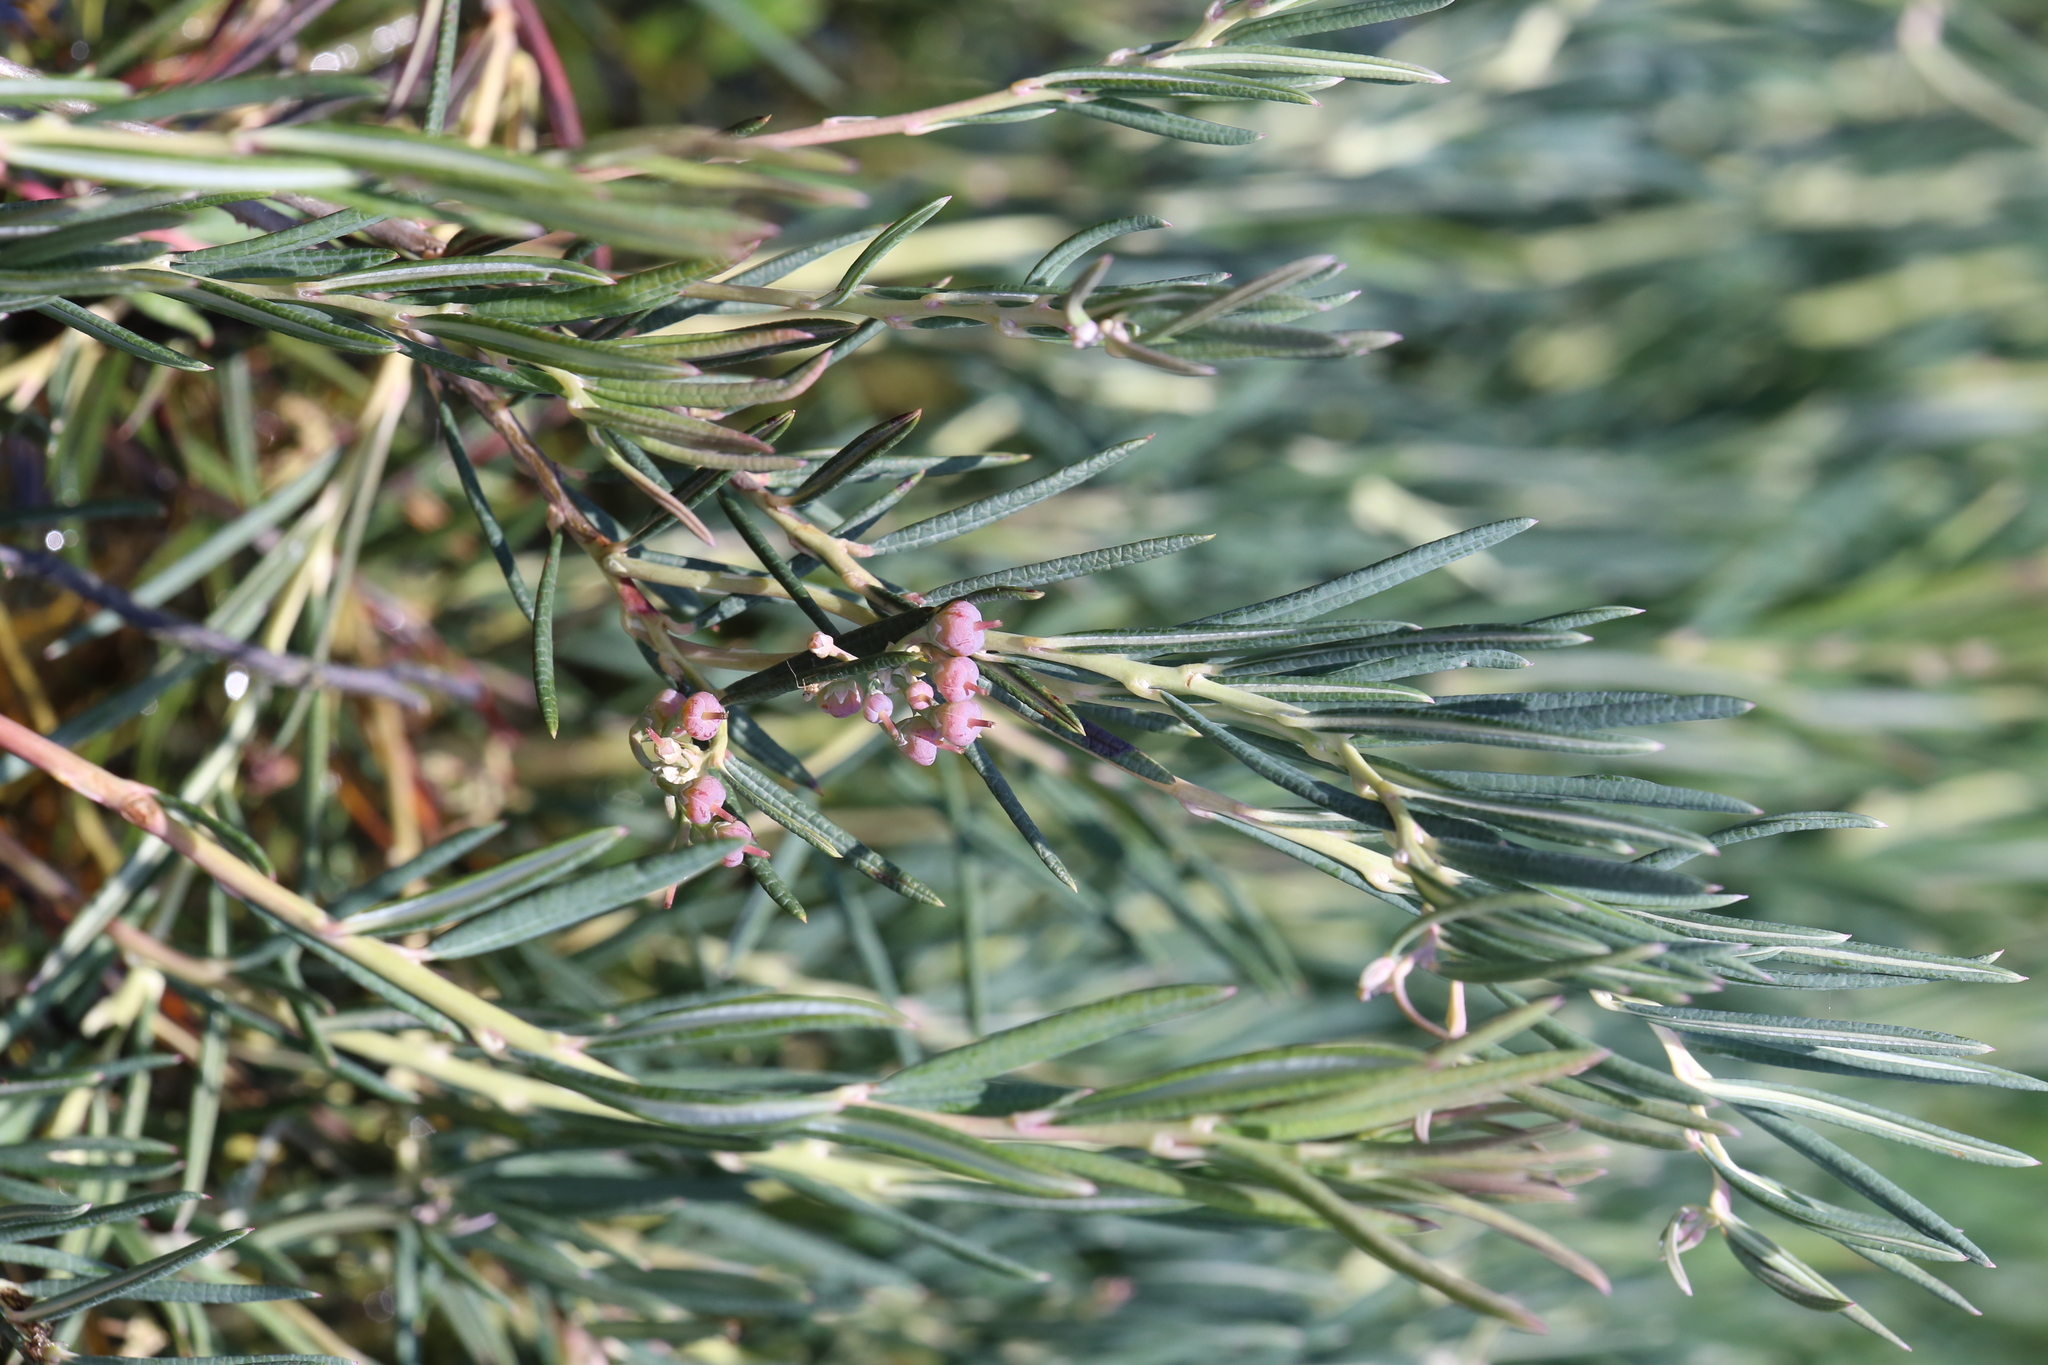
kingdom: Plantae
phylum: Tracheophyta
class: Magnoliopsida
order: Ericales
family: Ericaceae
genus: Andromeda
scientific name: Andromeda polifolia
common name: Bog-rosemary
